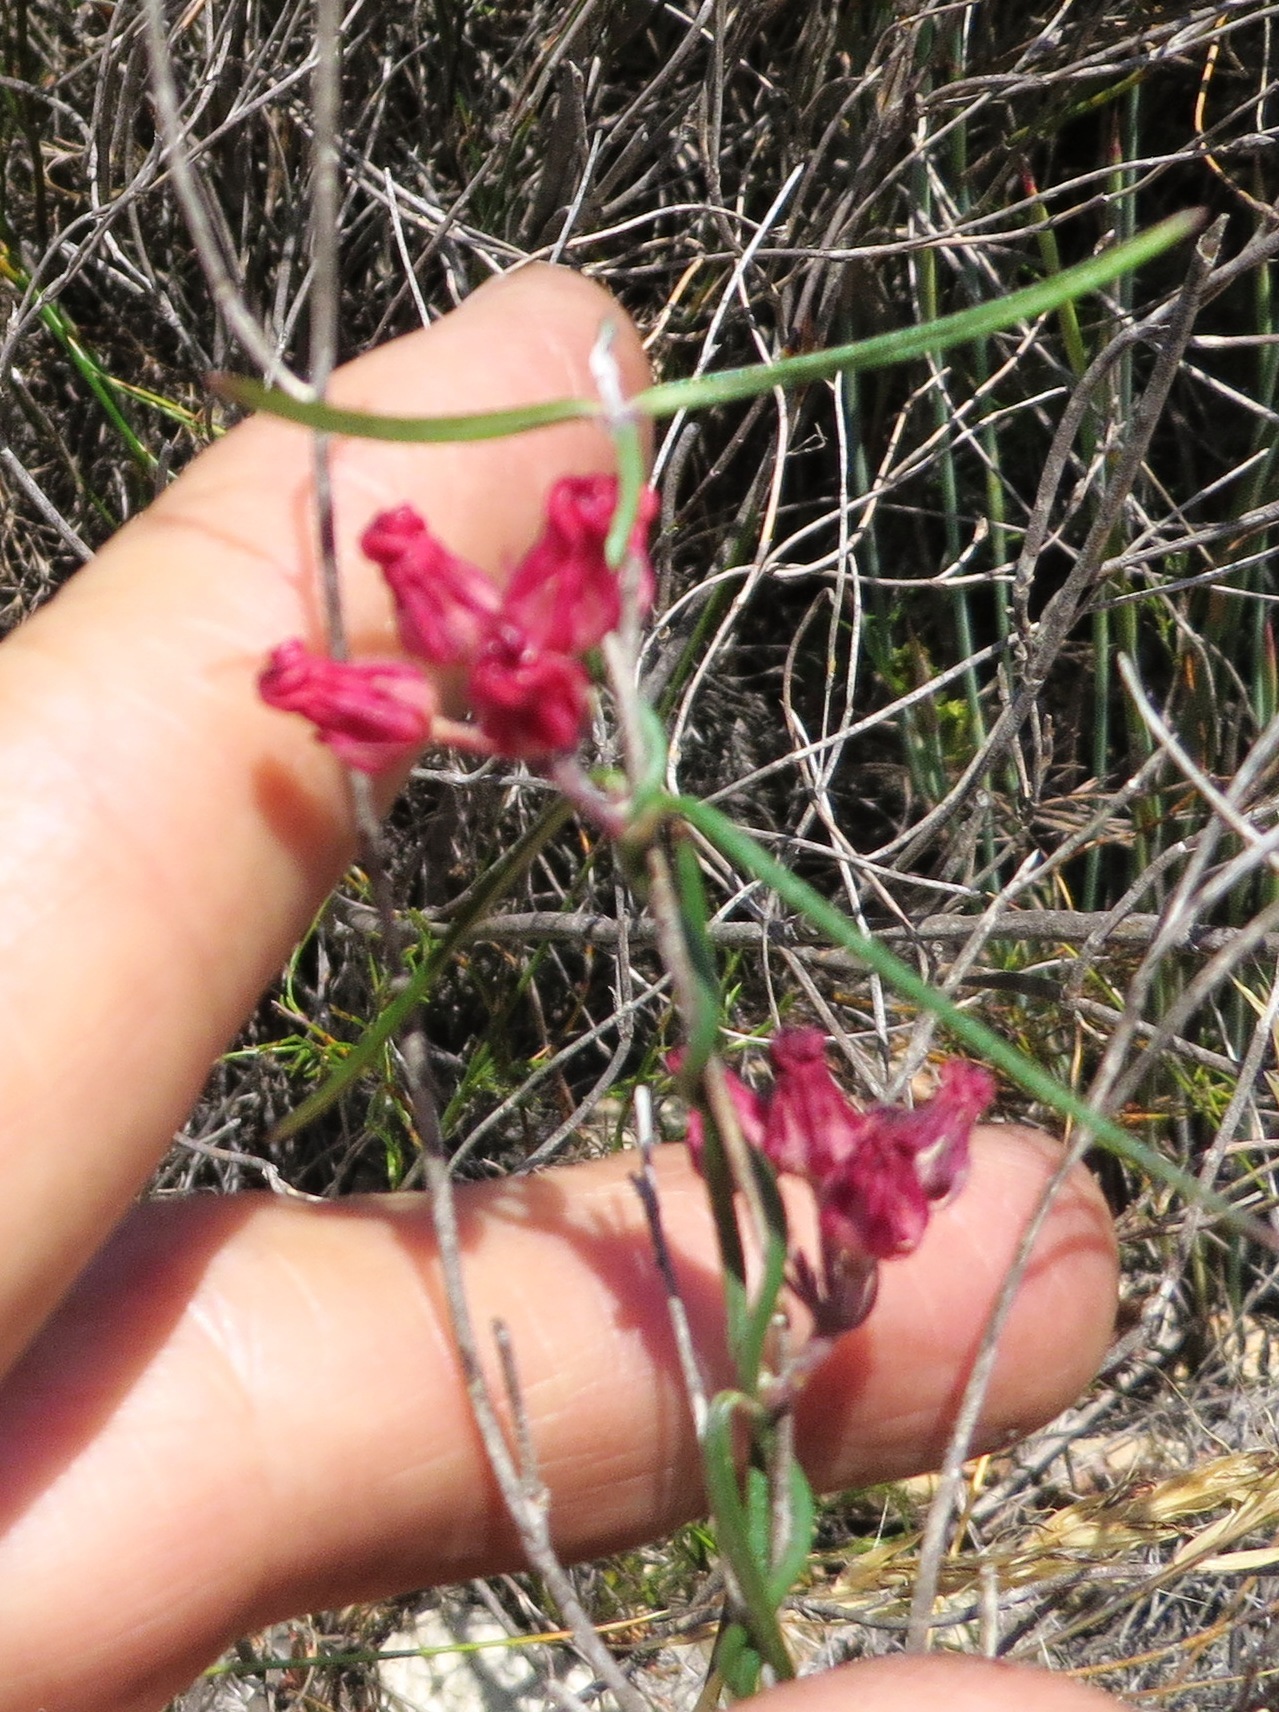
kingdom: Plantae
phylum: Tracheophyta
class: Magnoliopsida
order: Gentianales
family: Apocynaceae
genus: Microloma
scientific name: Microloma tenuifolium
